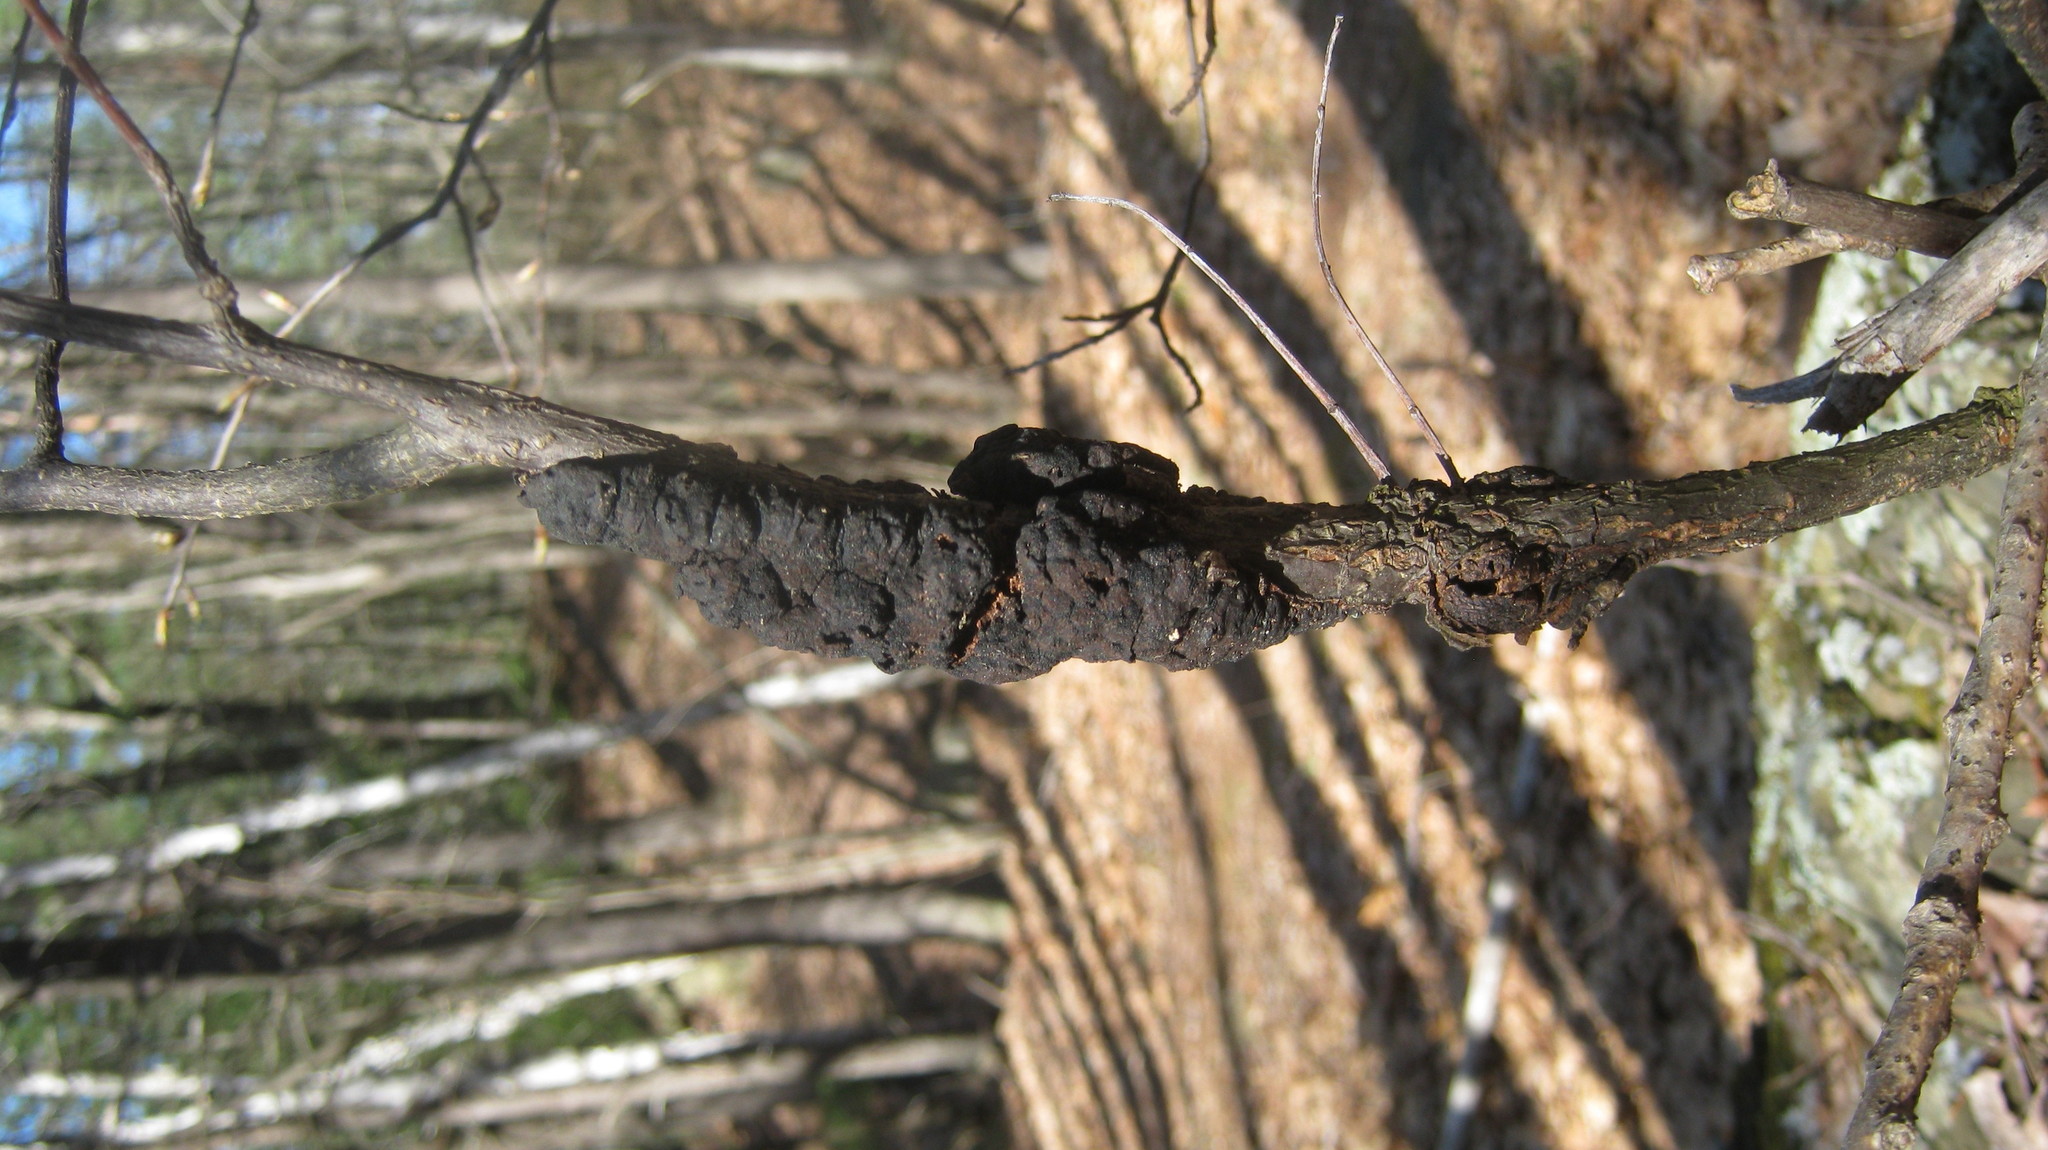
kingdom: Fungi
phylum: Ascomycota
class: Dothideomycetes
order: Venturiales
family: Venturiaceae
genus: Apiosporina
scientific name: Apiosporina morbosa
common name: Black knot
